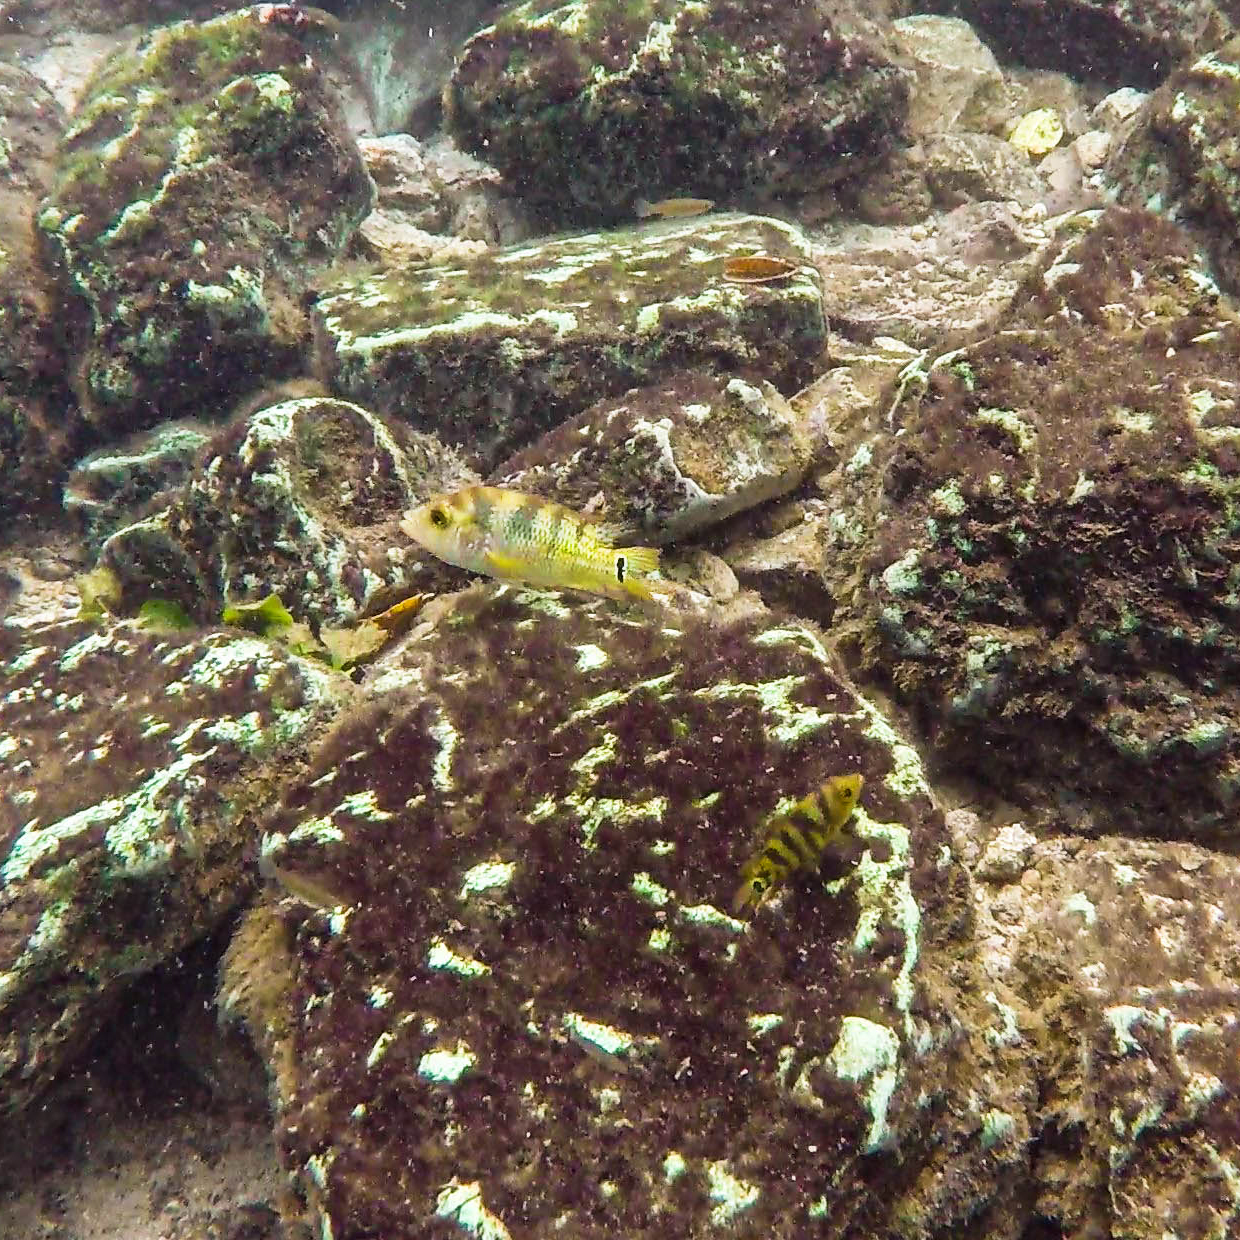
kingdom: Animalia
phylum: Chordata
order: Perciformes
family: Cichlidae
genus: Mayaheros
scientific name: Mayaheros urophthalmus
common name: Mayan cichlid
